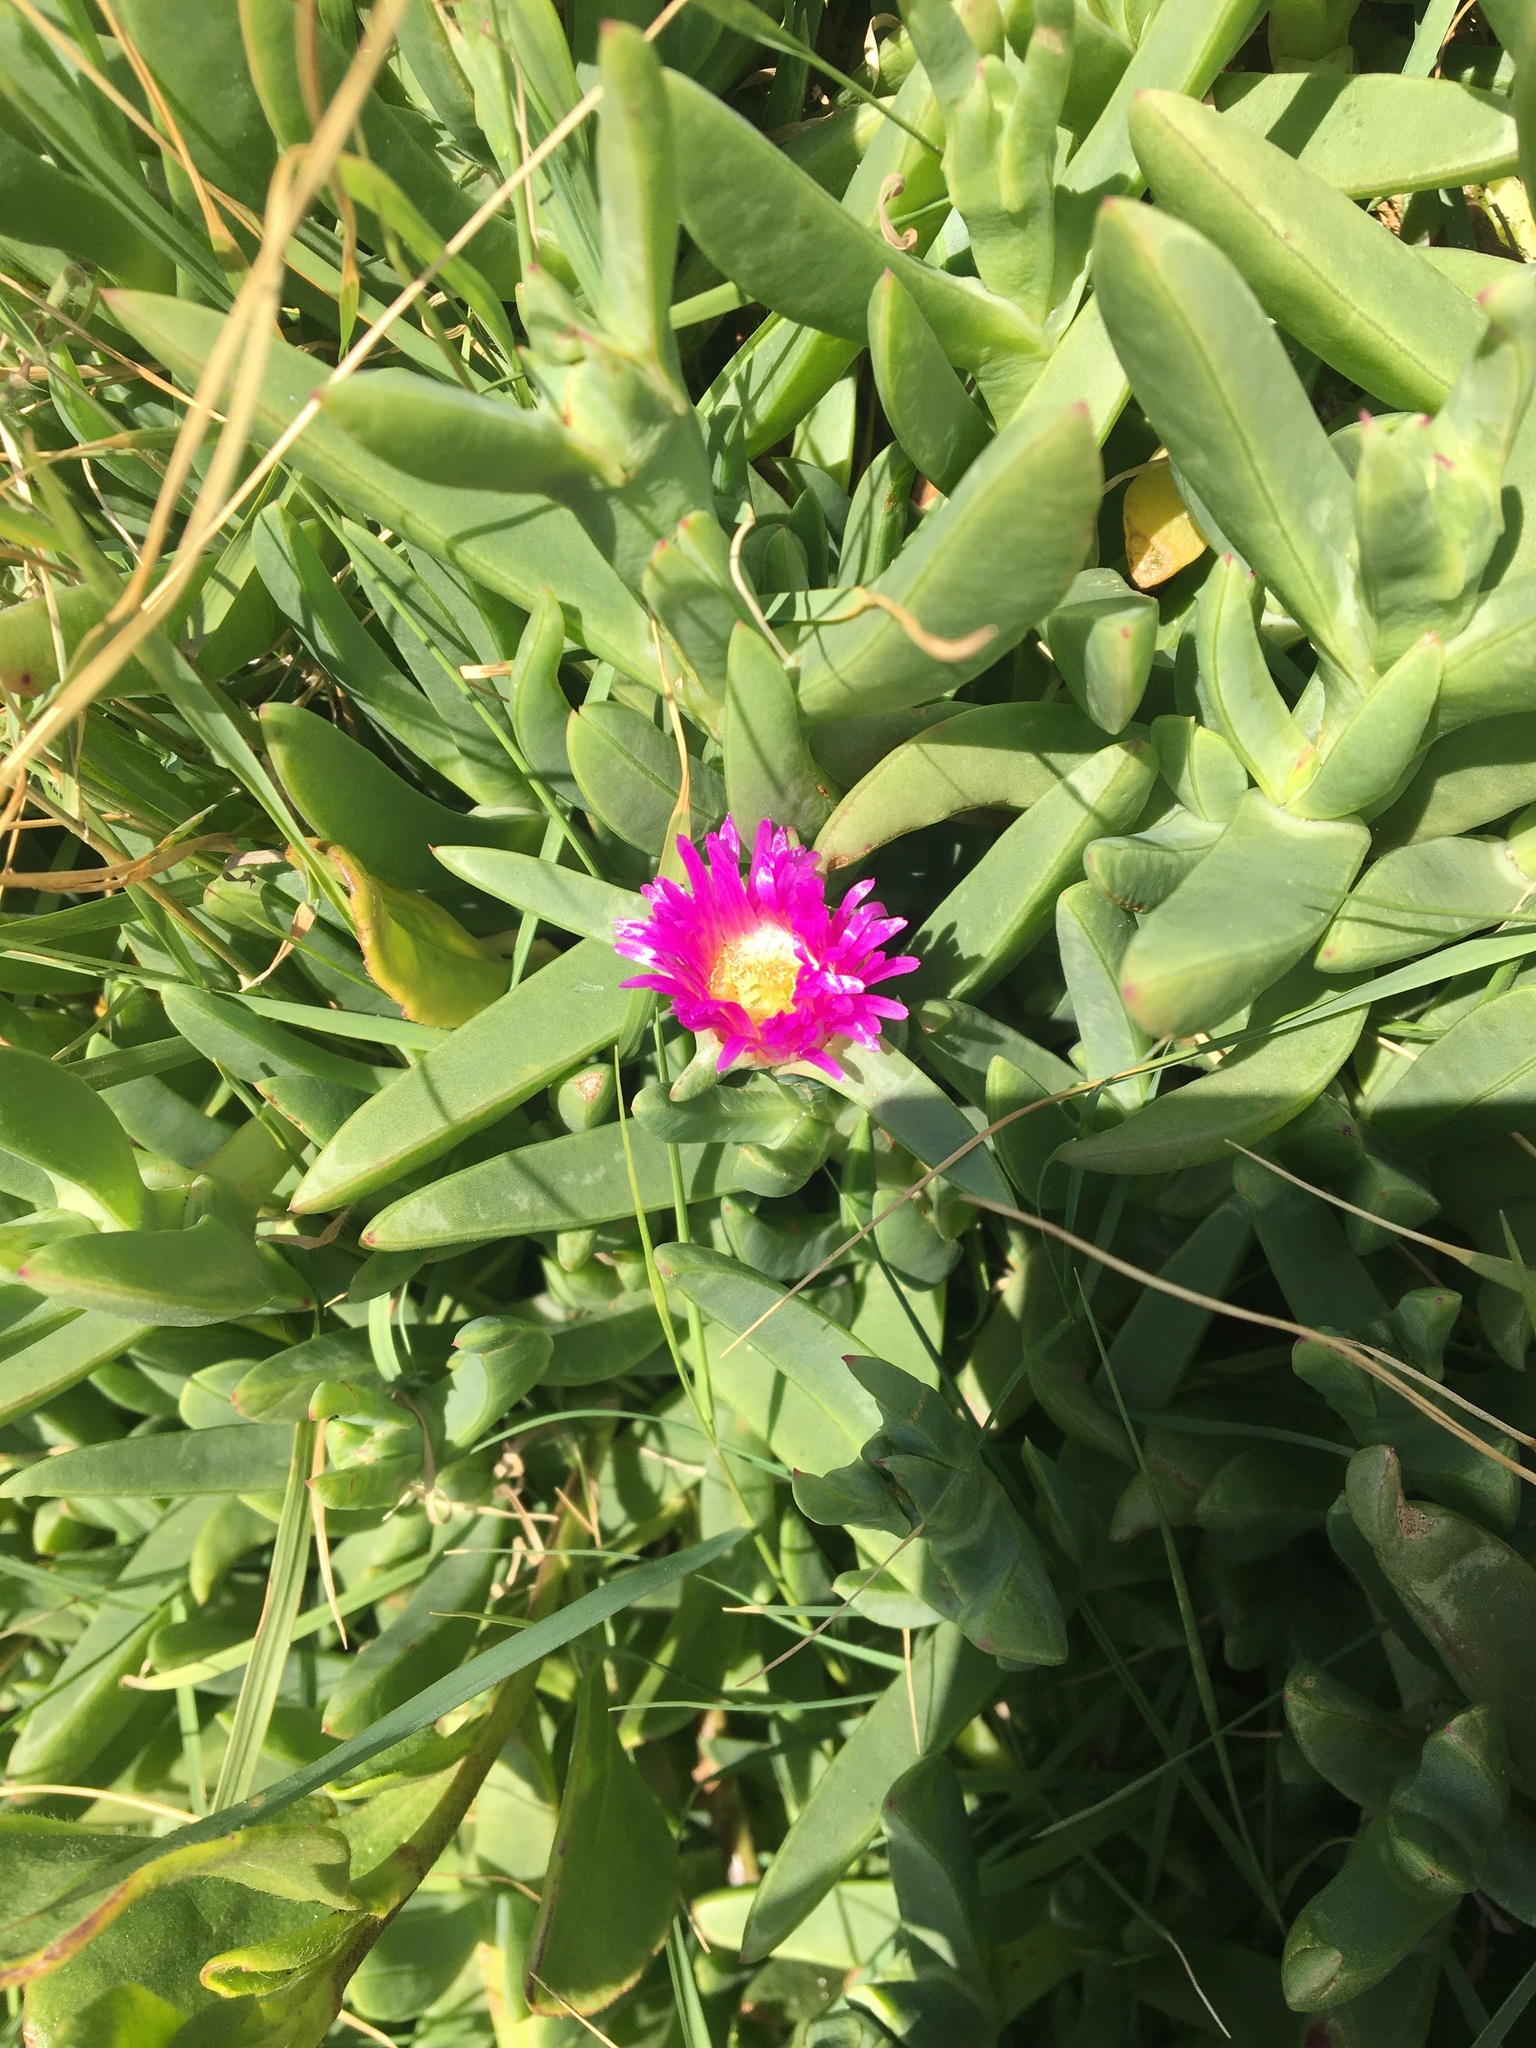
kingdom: Plantae
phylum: Tracheophyta
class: Magnoliopsida
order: Caryophyllales
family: Aizoaceae
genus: Carpobrotus
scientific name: Carpobrotus glaucescens
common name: Angular sea-fig
